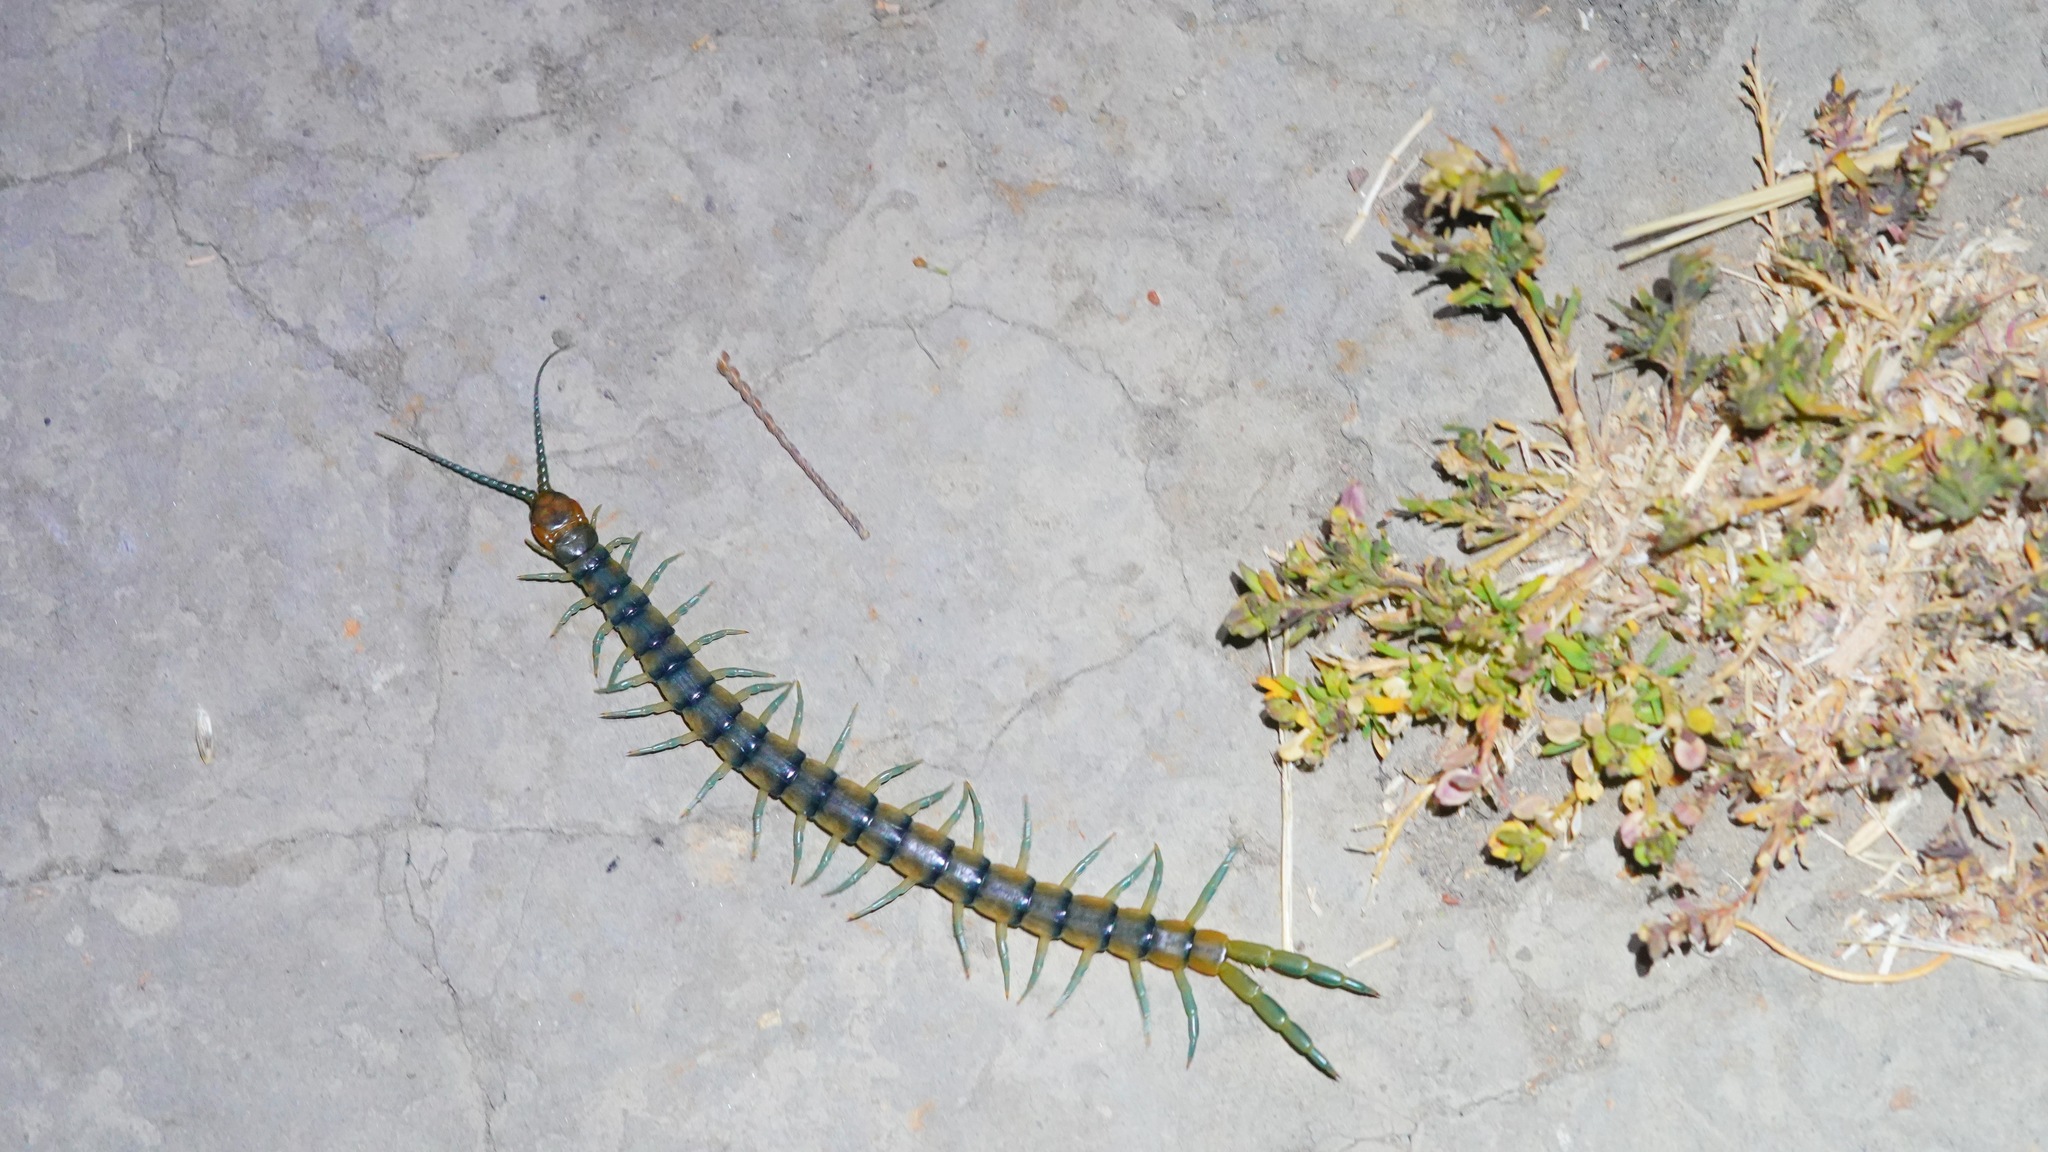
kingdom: Animalia
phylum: Arthropoda
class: Chilopoda
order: Scolopendromorpha
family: Scolopendridae
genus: Scolopendra
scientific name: Scolopendra polymorpha
